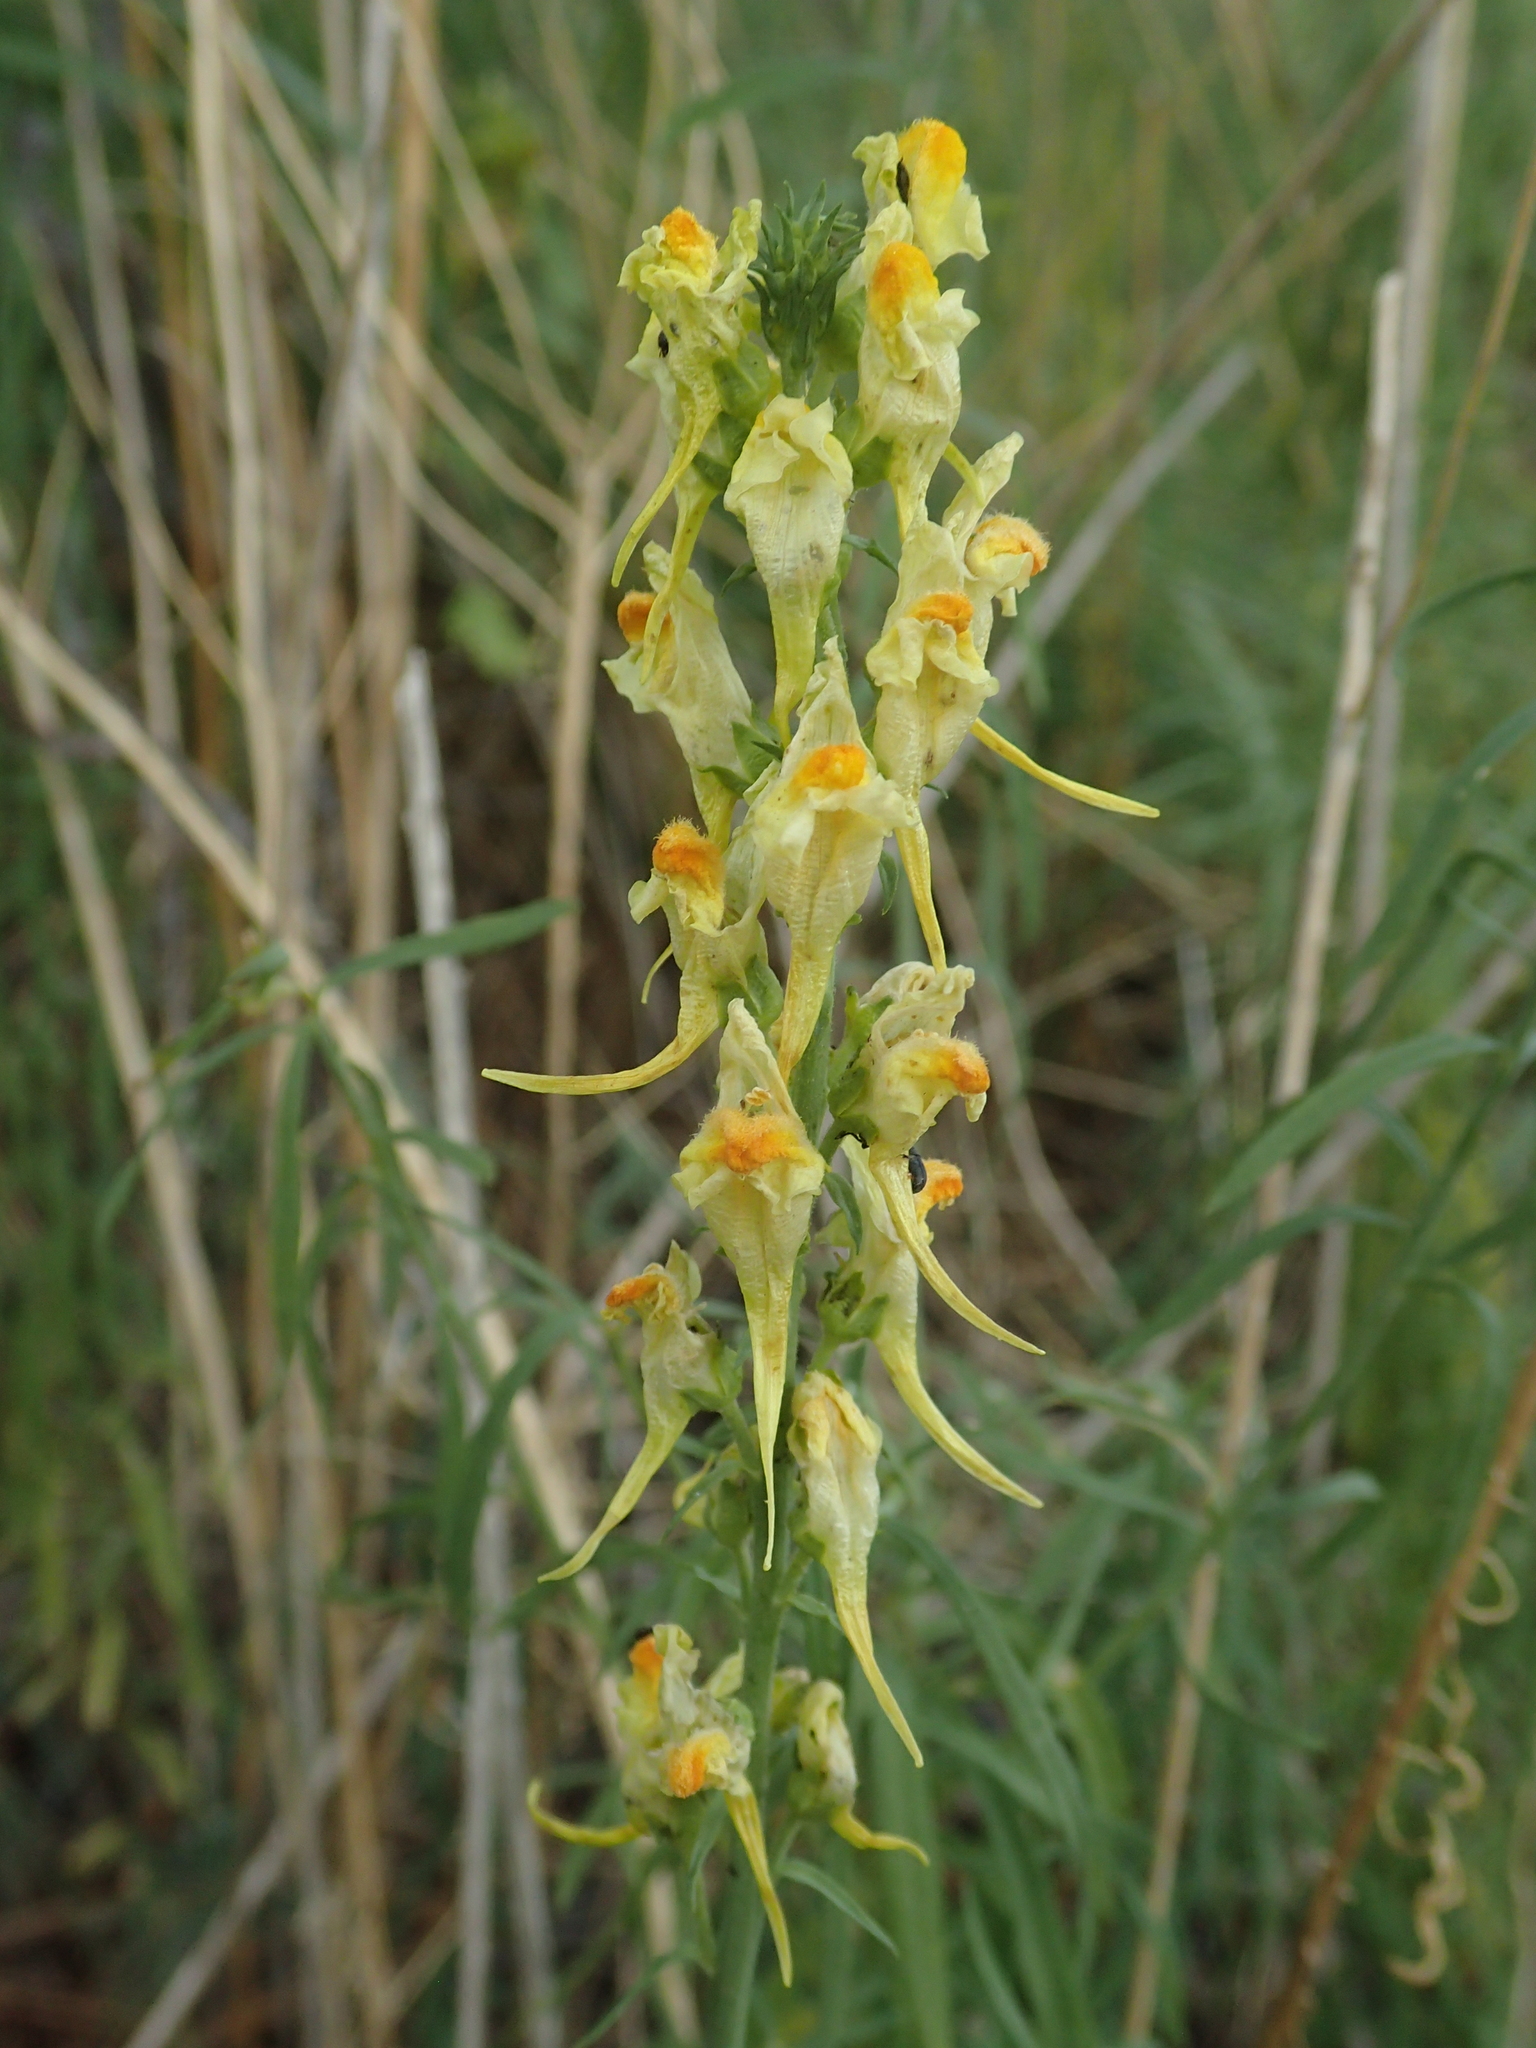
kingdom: Plantae
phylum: Tracheophyta
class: Magnoliopsida
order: Lamiales
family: Plantaginaceae
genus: Linaria
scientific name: Linaria vulgaris
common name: Butter and eggs
